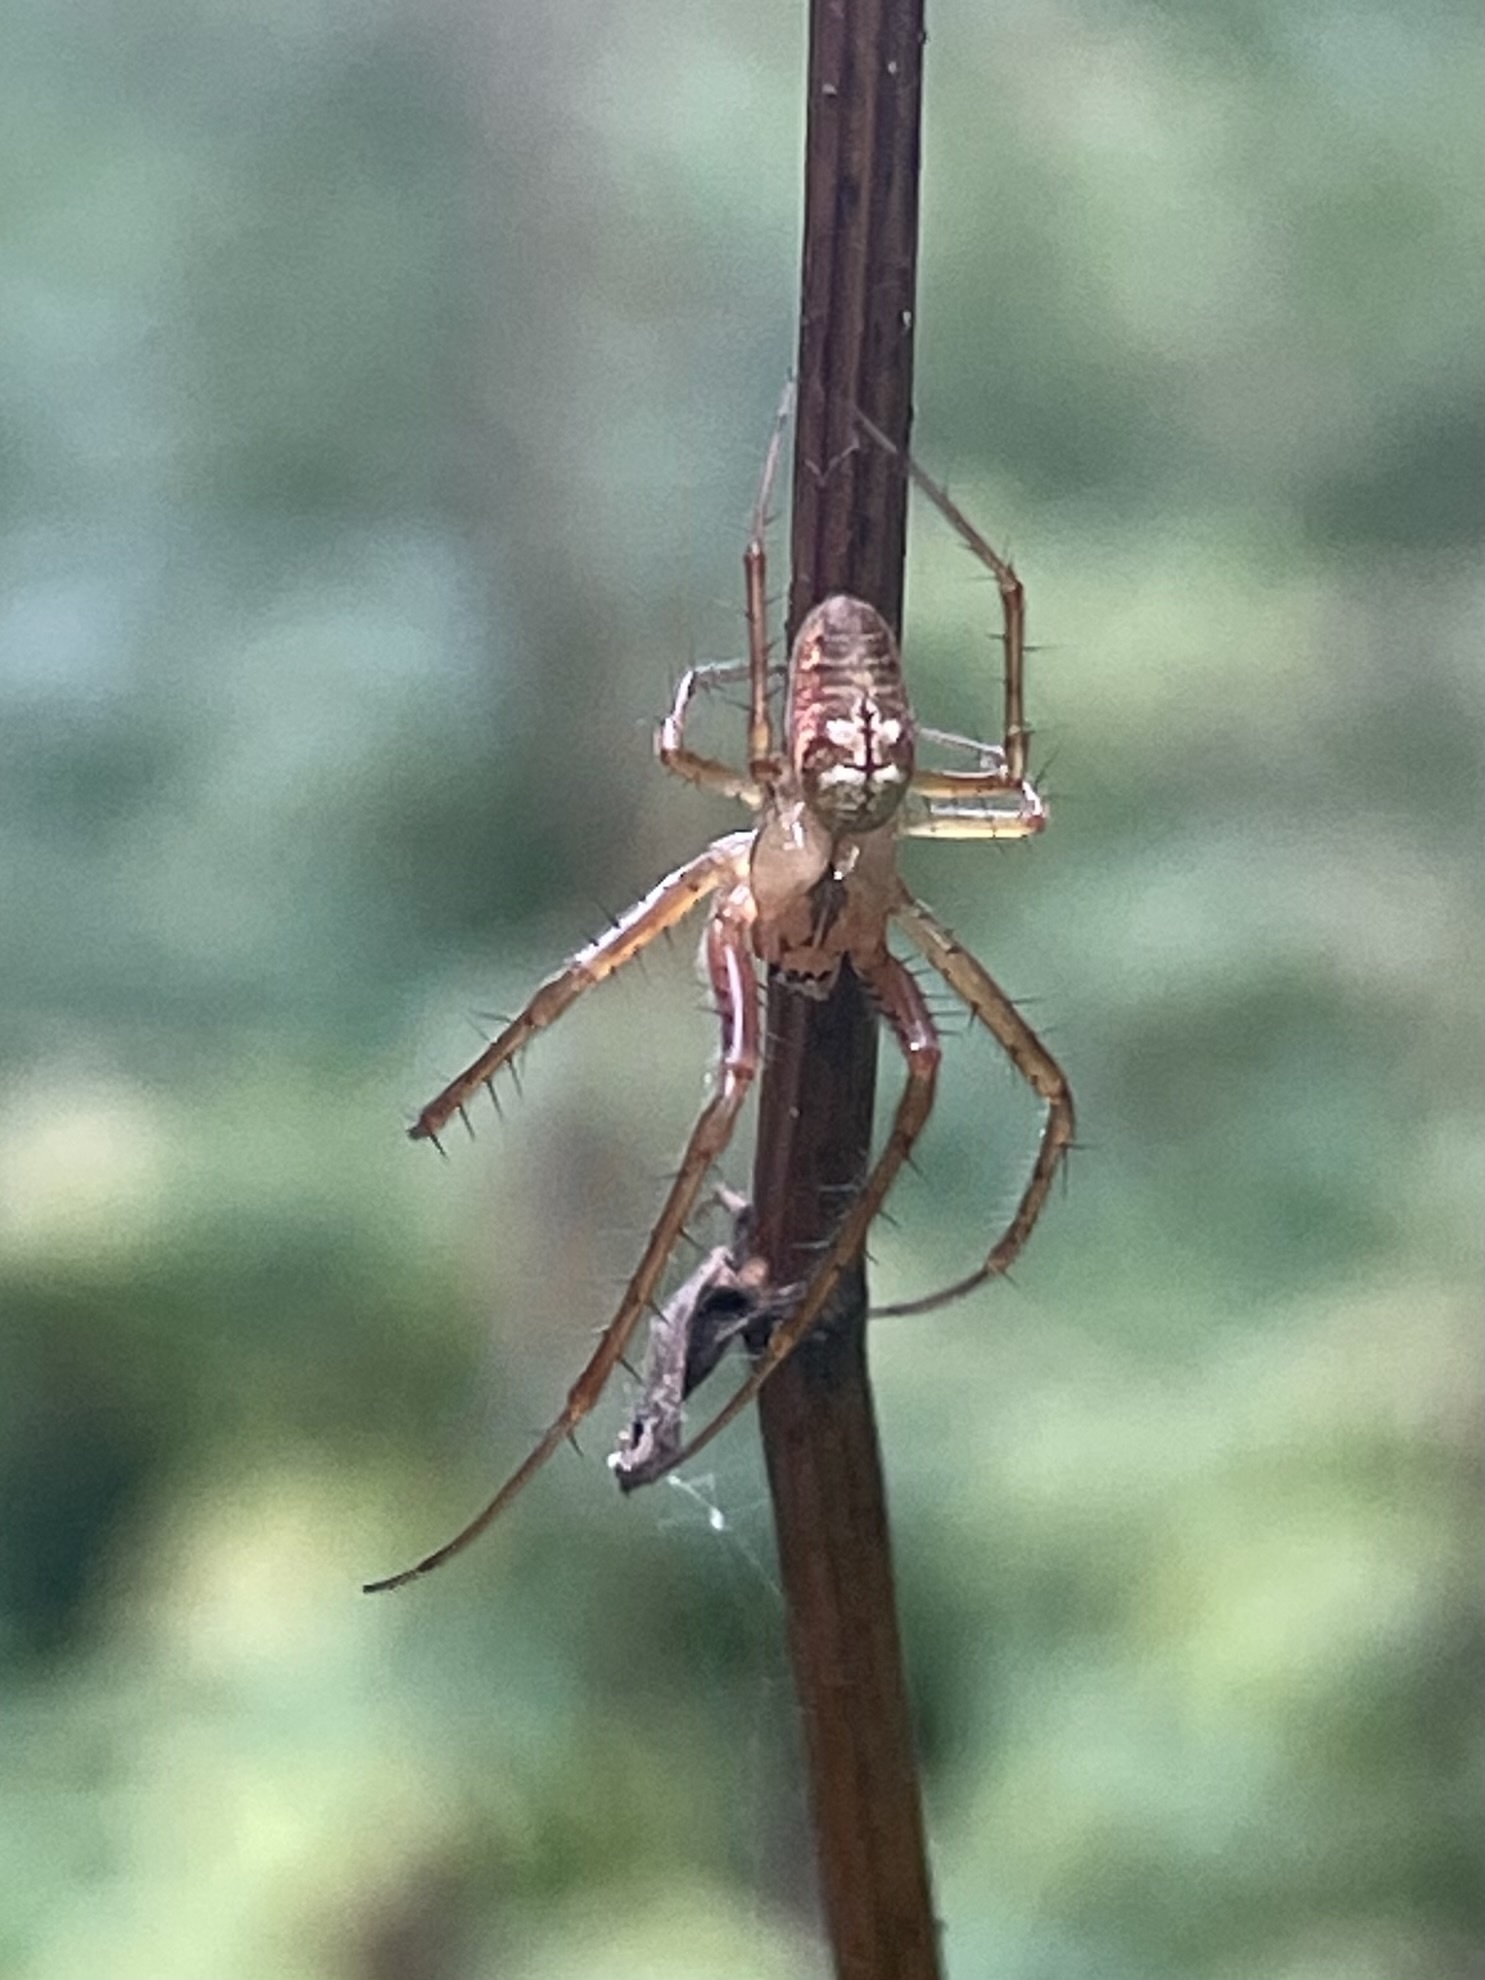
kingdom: Animalia
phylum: Arthropoda
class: Arachnida
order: Araneae
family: Tetragnathidae
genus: Metellina
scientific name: Metellina
